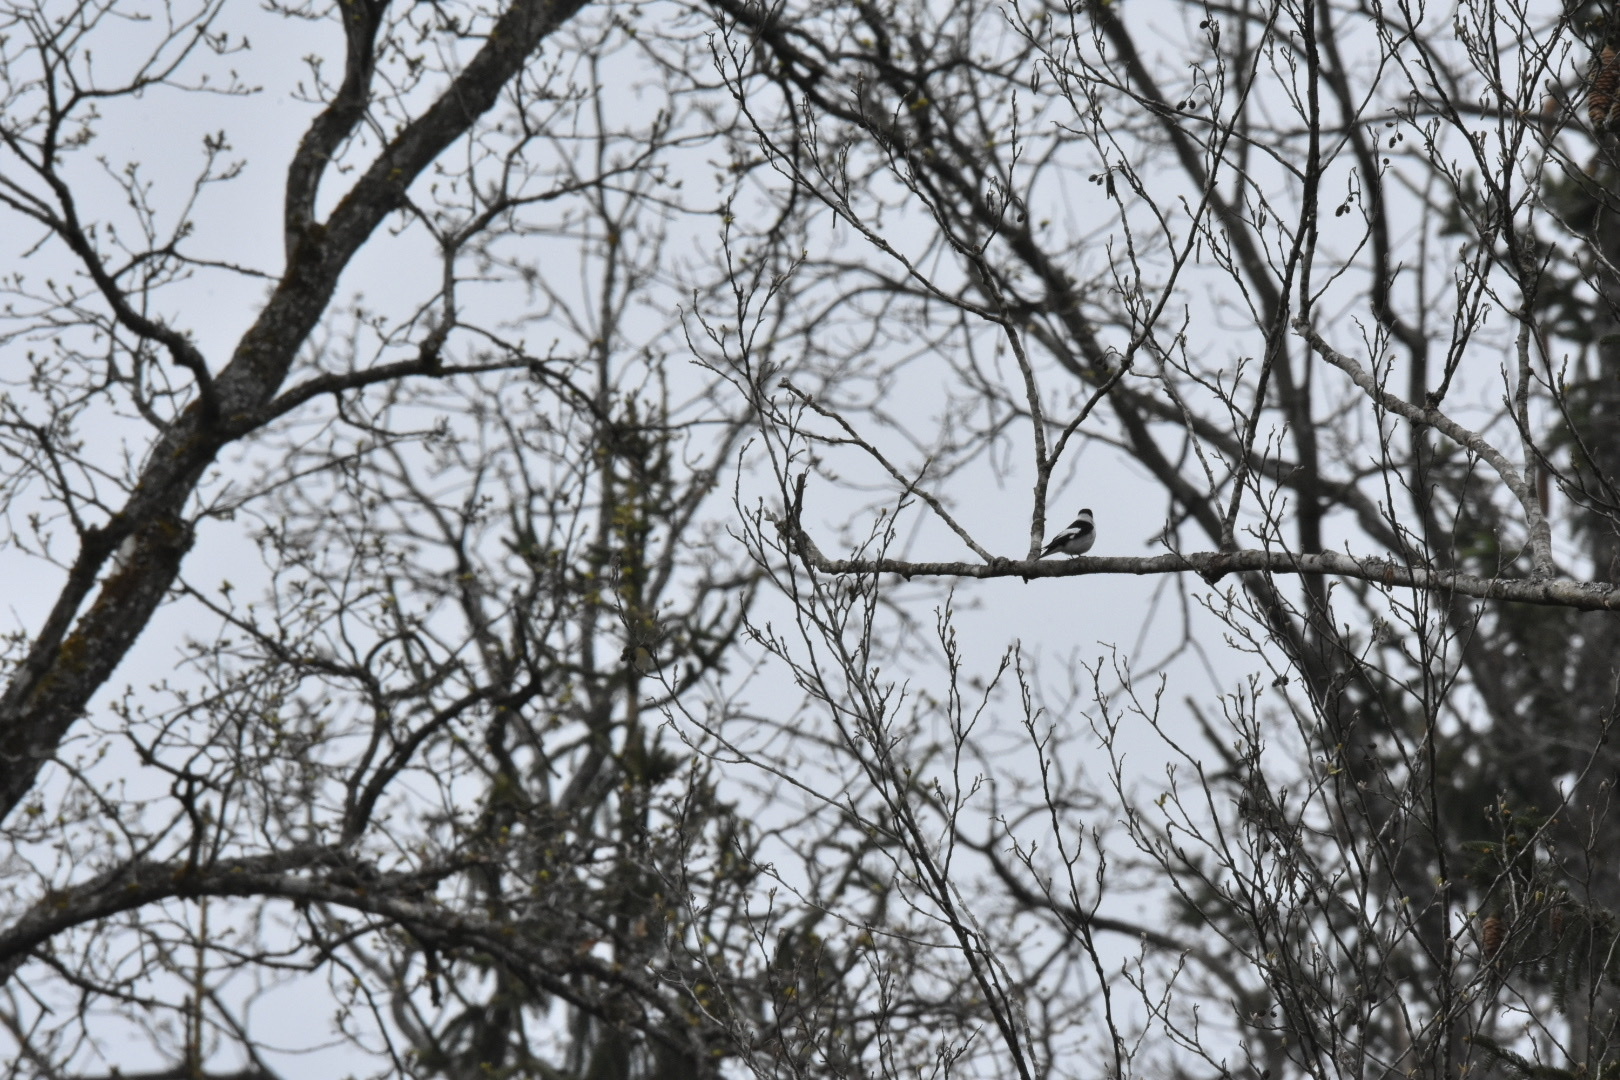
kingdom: Animalia
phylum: Chordata
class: Aves
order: Passeriformes
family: Muscicapidae
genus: Ficedula
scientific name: Ficedula albicollis
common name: Collared flycatcher
